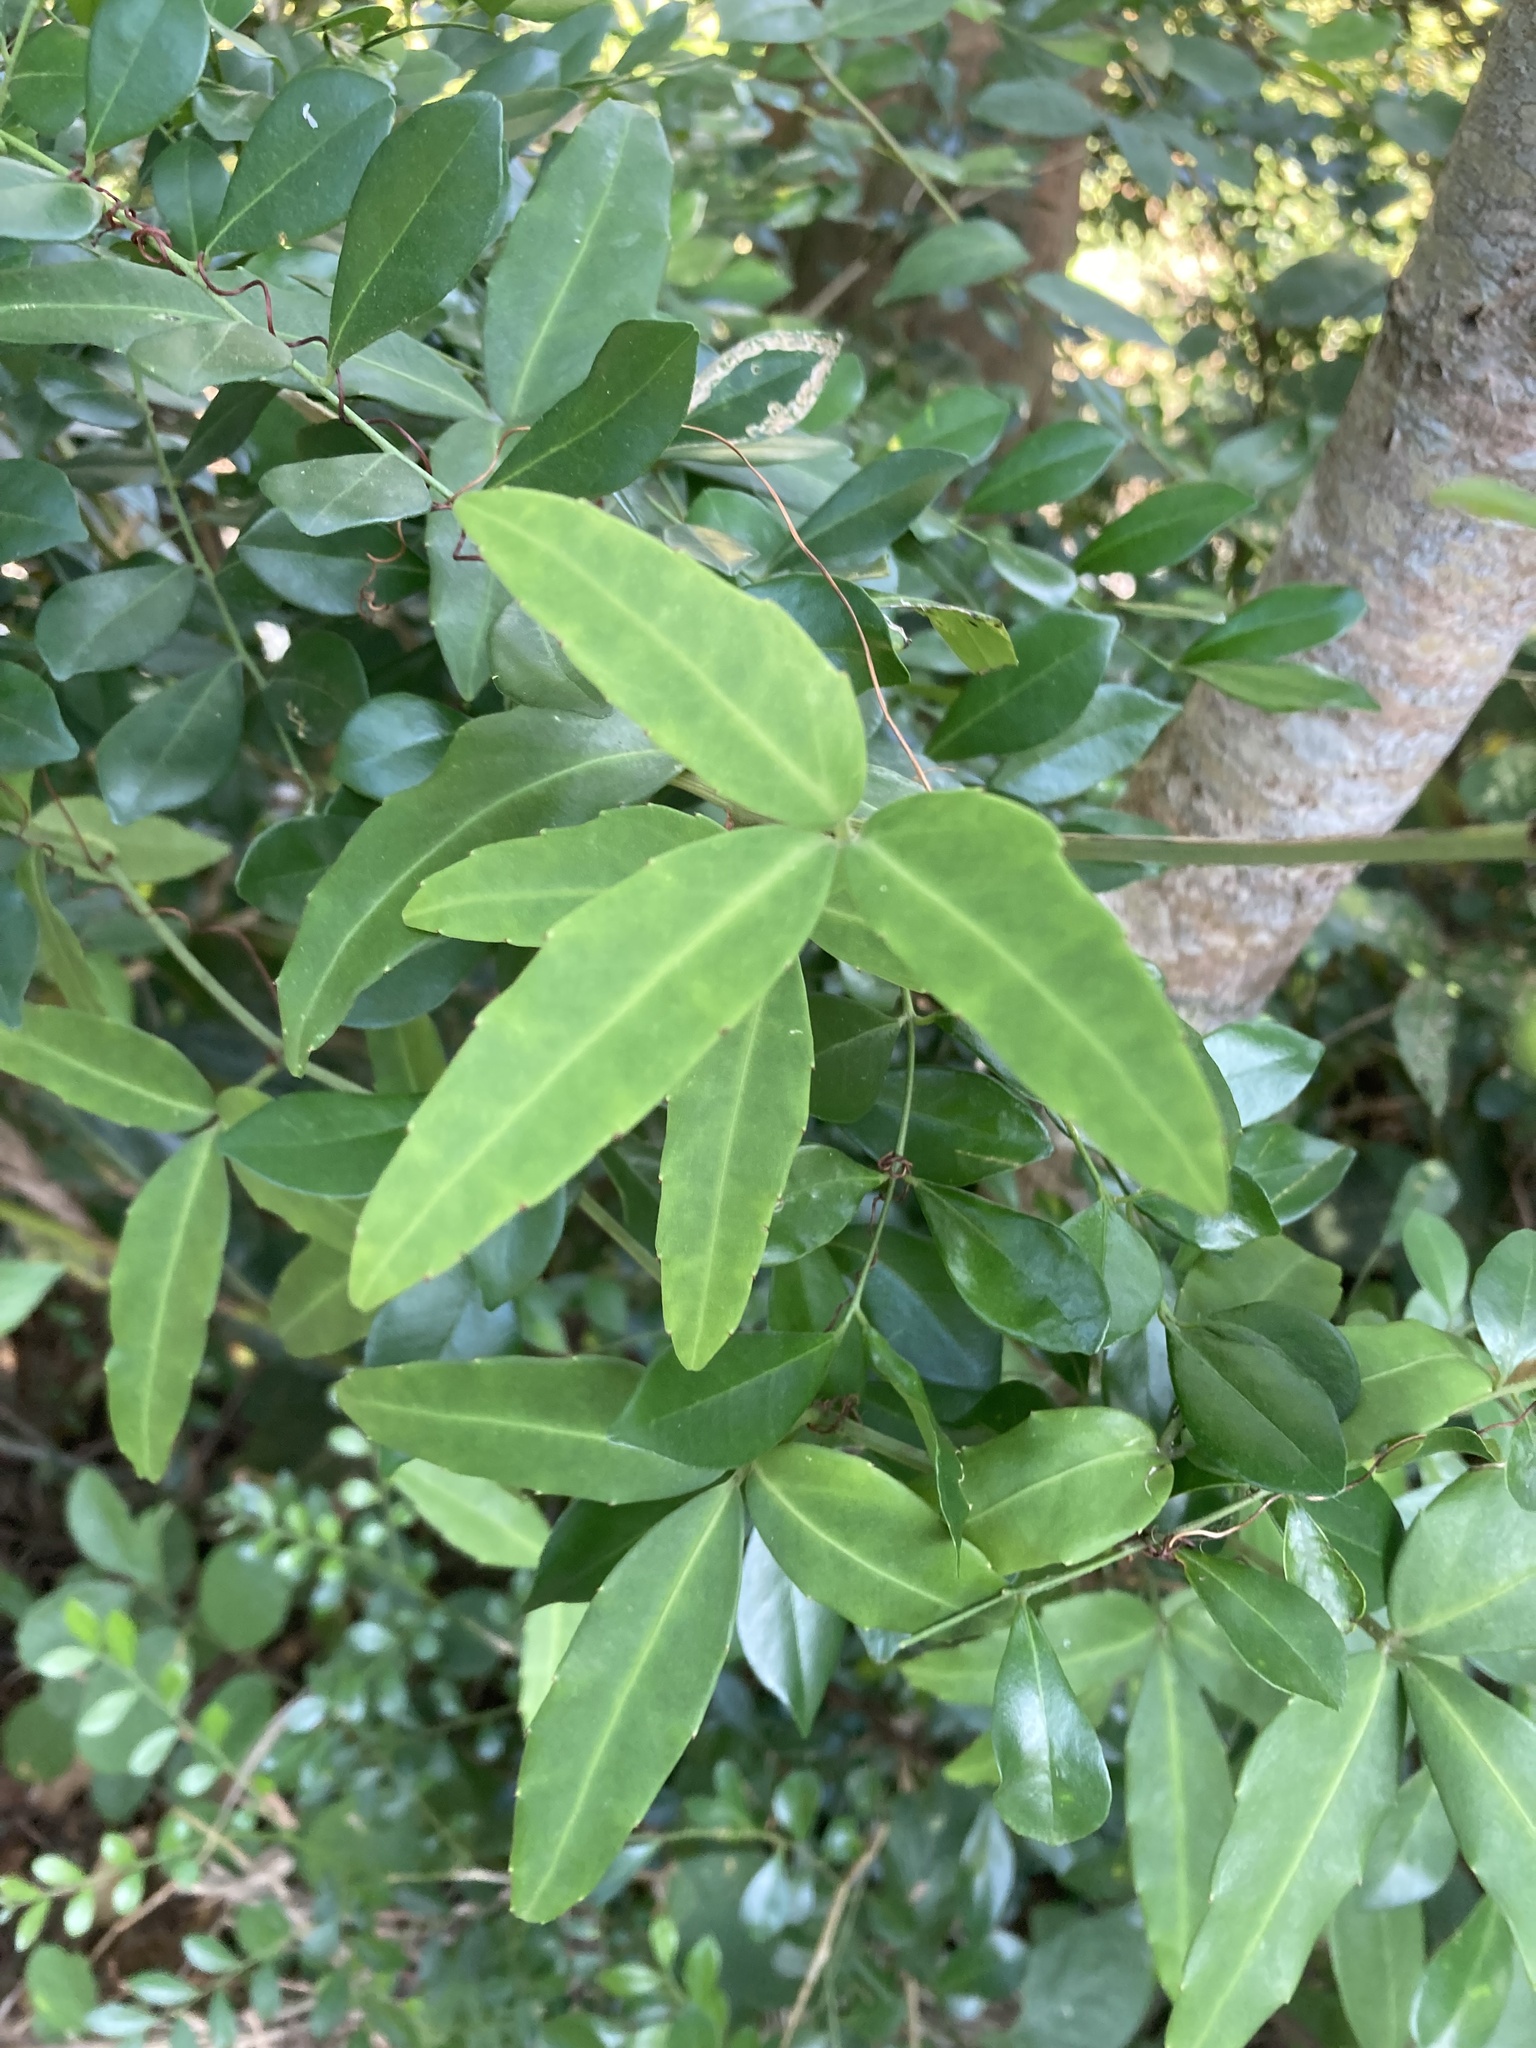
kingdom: Plantae
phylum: Tracheophyta
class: Magnoliopsida
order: Vitales
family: Vitaceae
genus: Tetrastigma
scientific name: Tetrastigma formosanum
